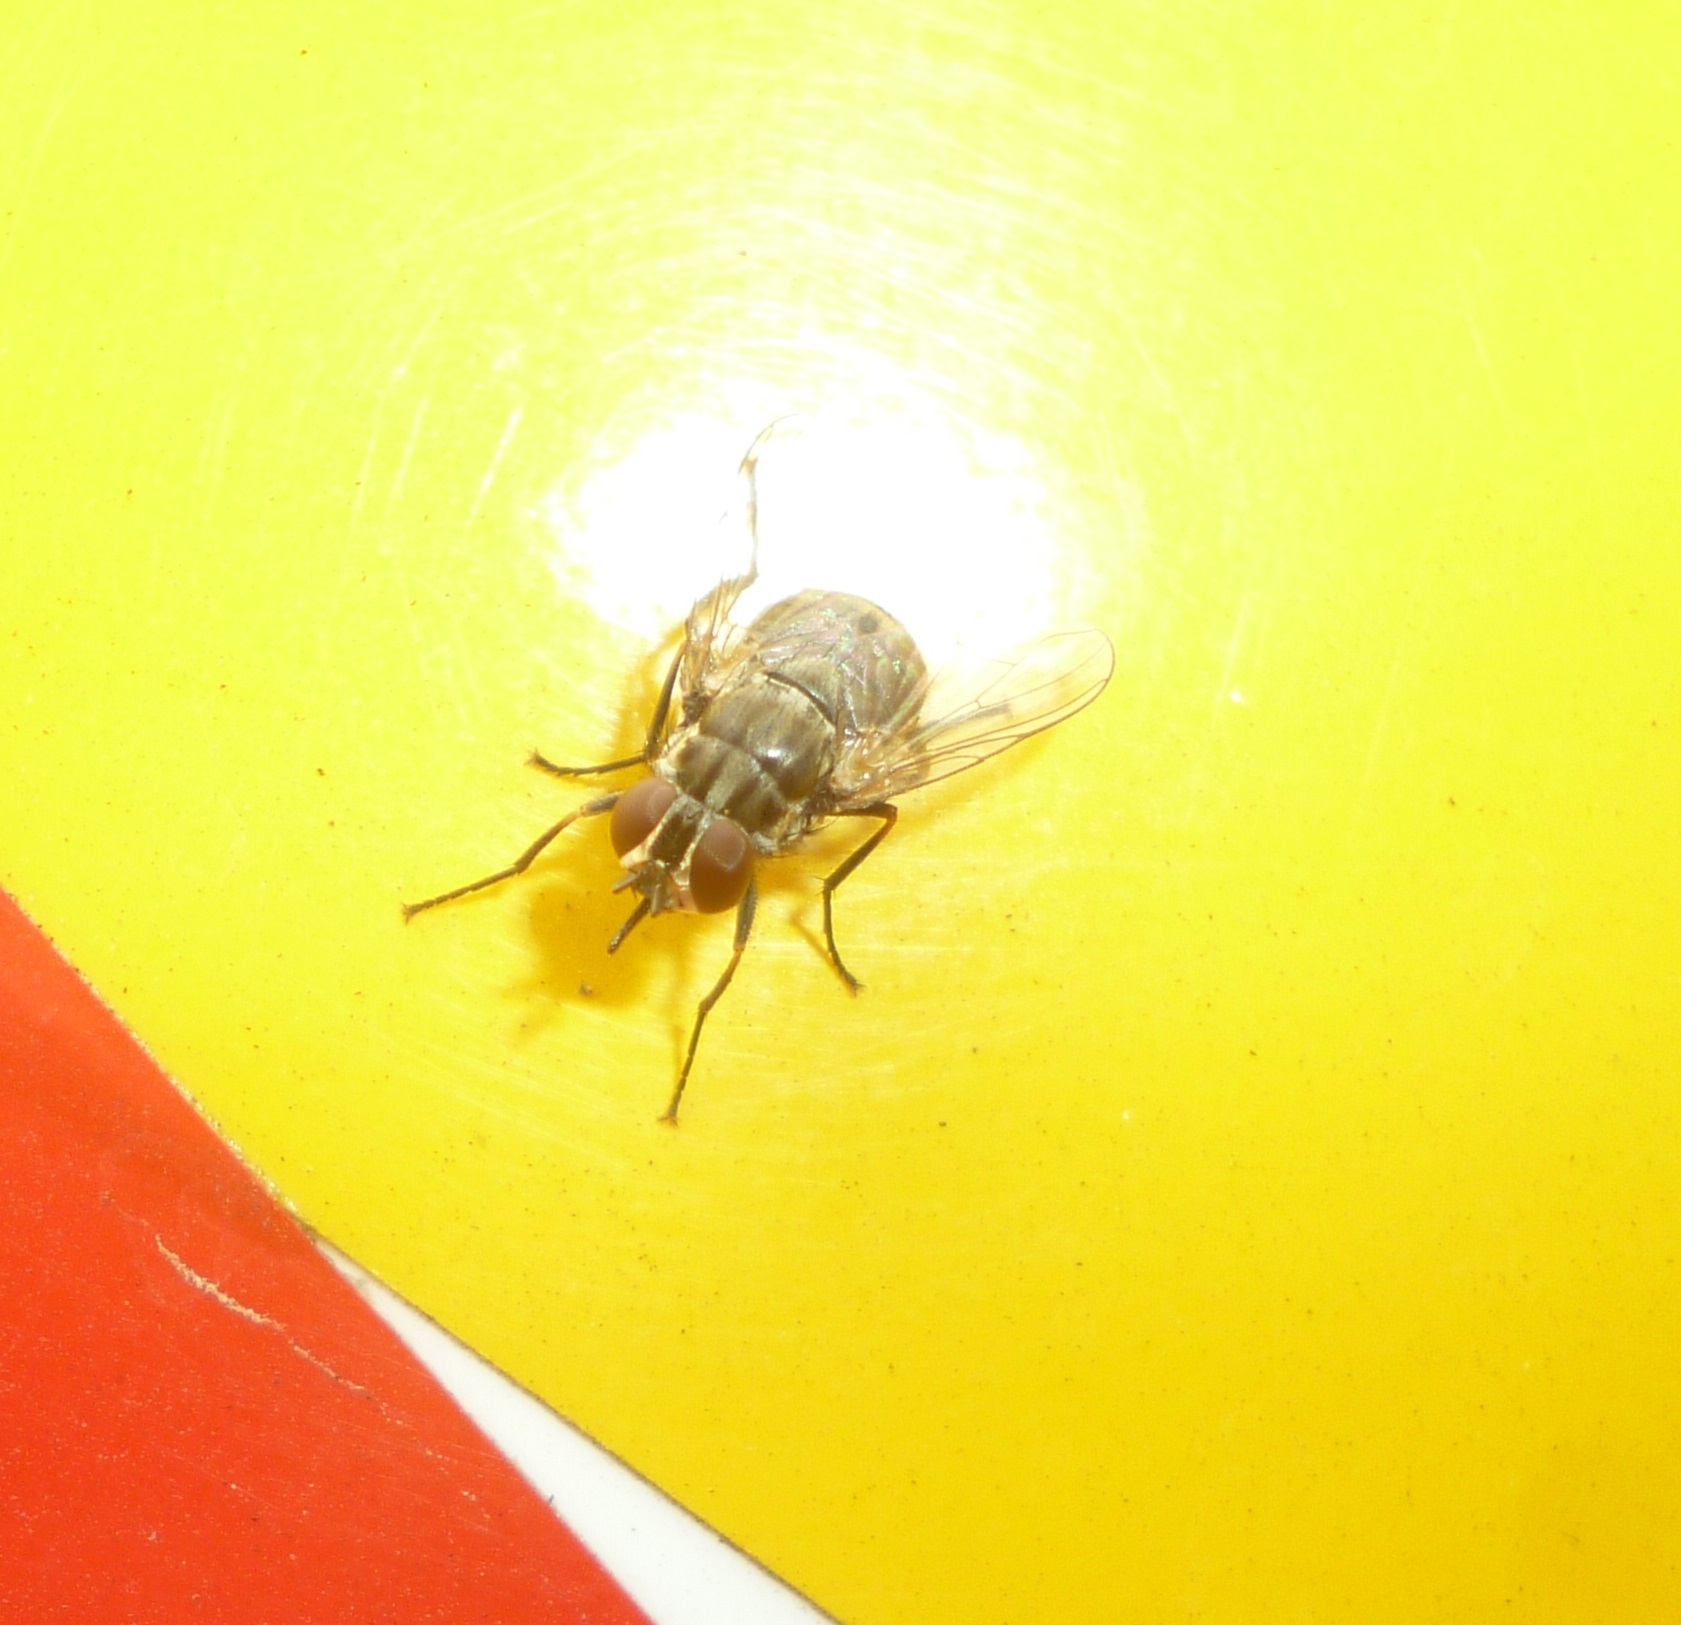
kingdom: Animalia
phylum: Arthropoda
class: Insecta
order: Diptera
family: Muscidae
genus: Stomoxys
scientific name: Stomoxys calcitrans
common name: Stable fly
